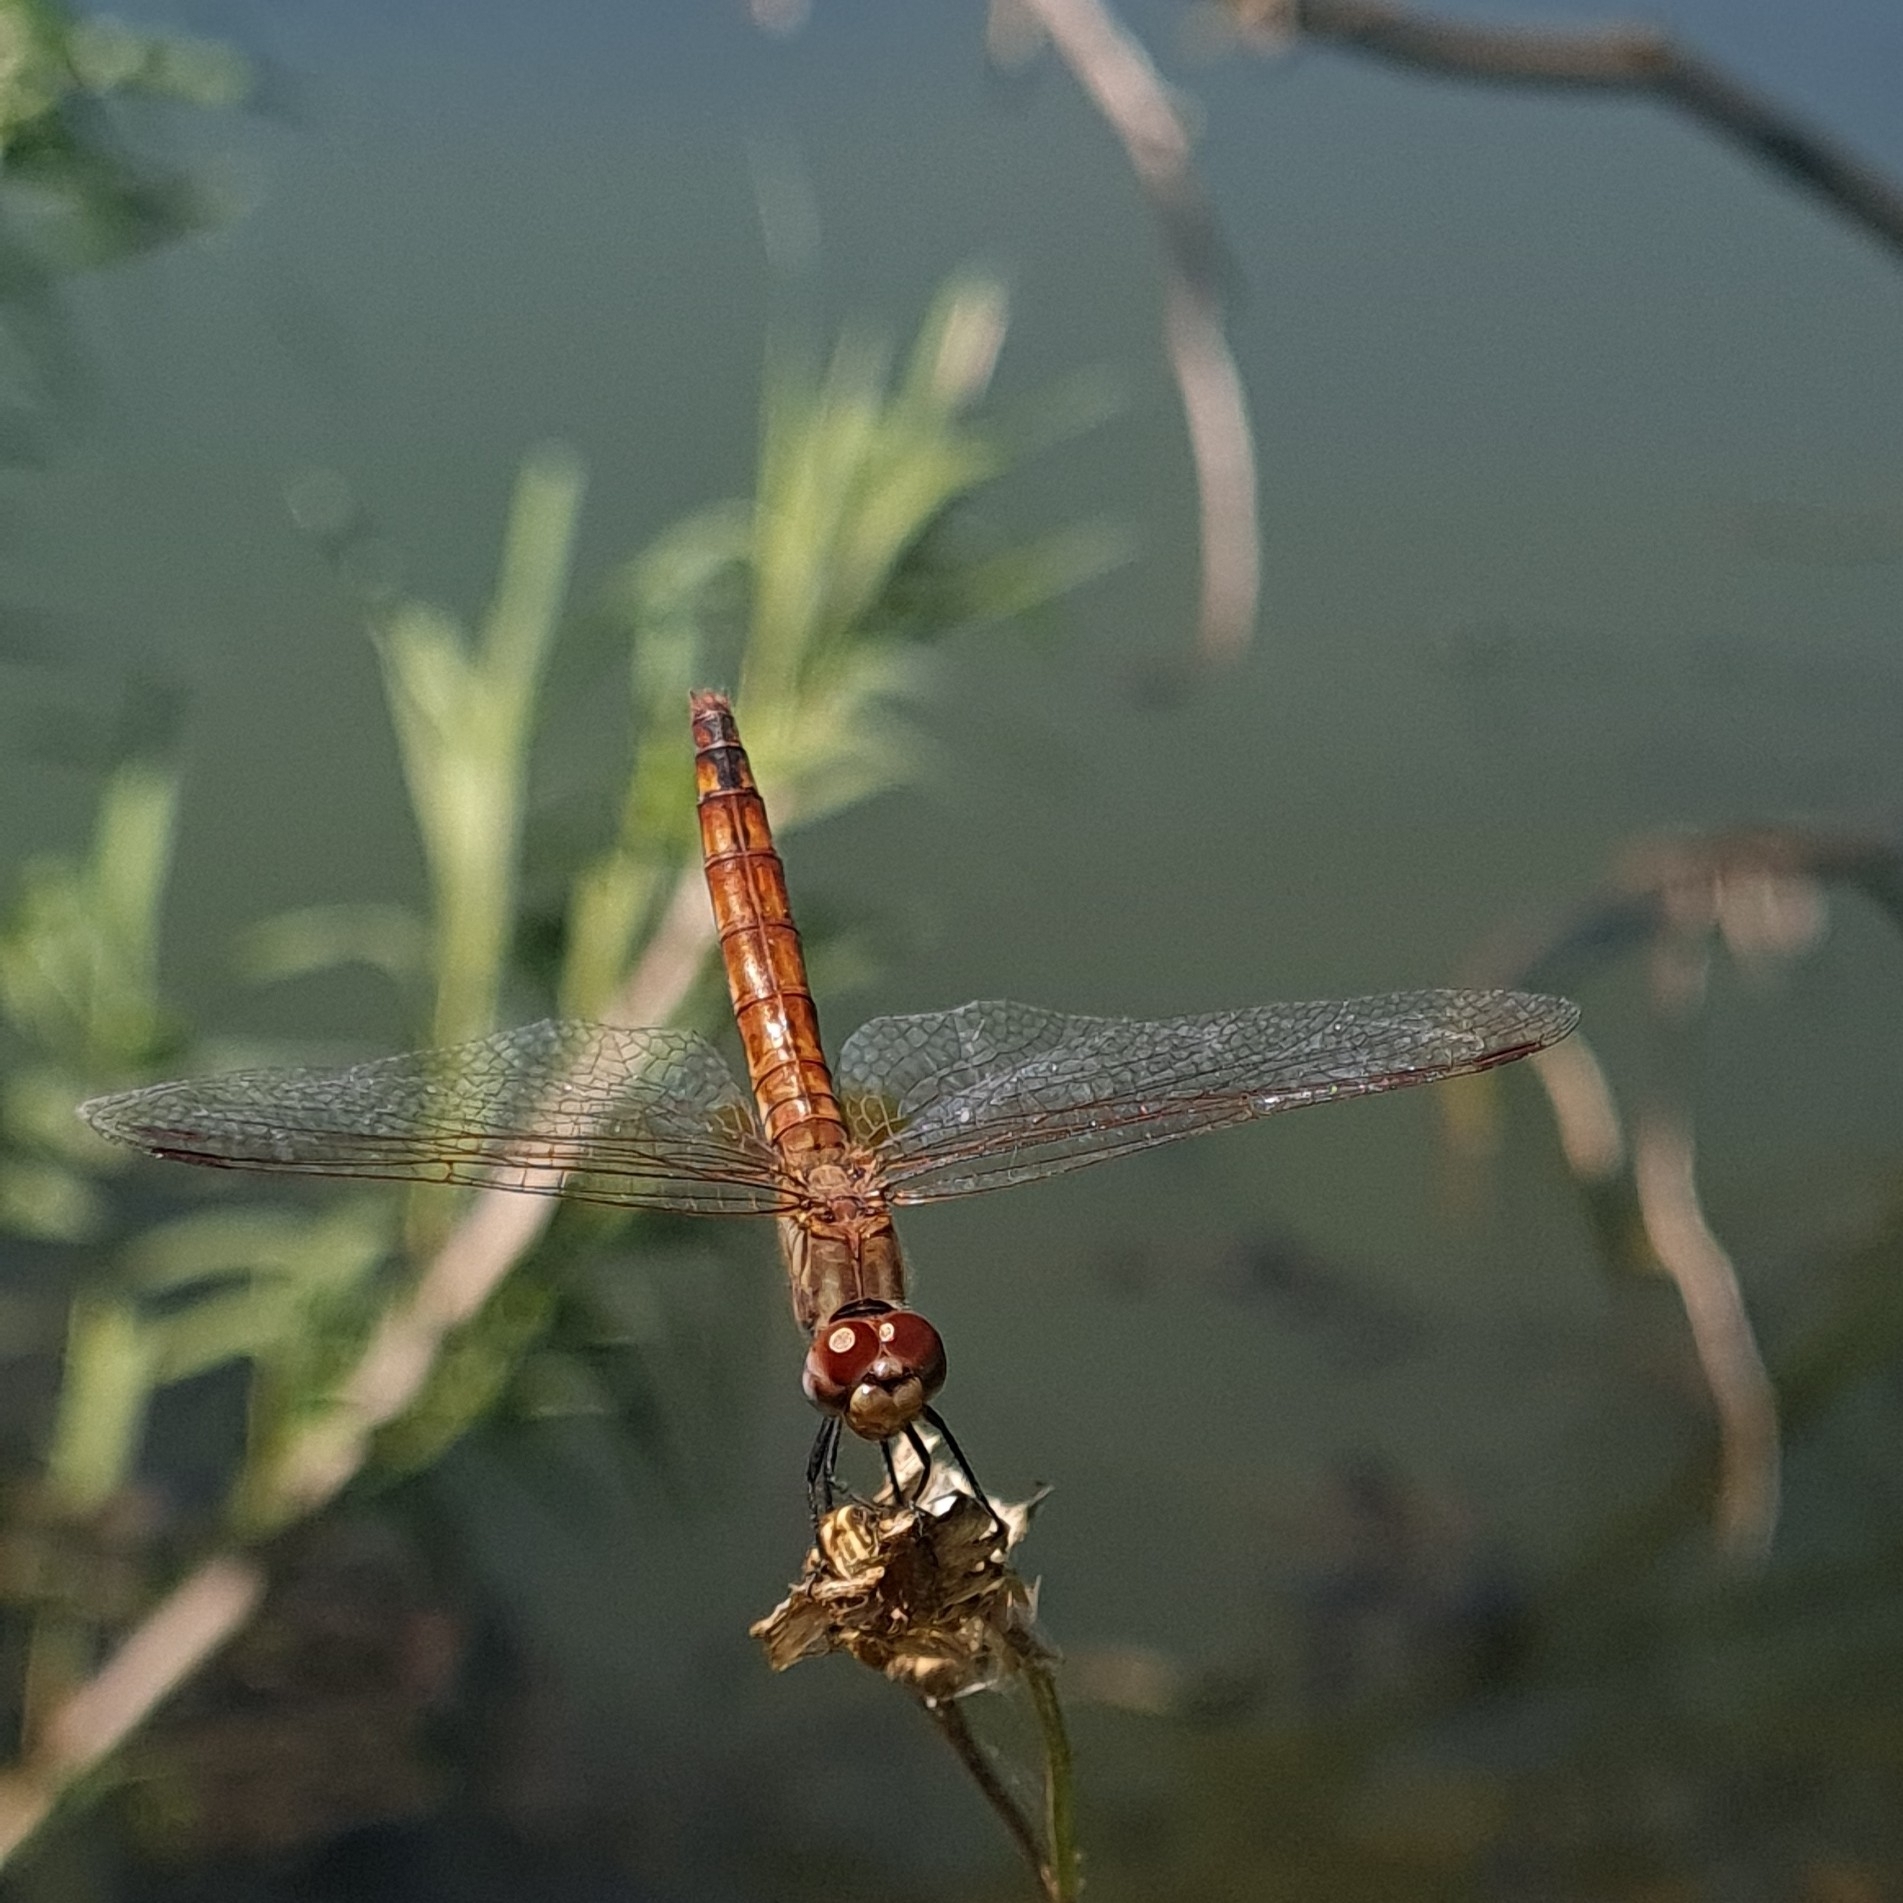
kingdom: Animalia
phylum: Arthropoda
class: Insecta
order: Odonata
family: Libellulidae
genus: Trithemis
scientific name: Trithemis annulata
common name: Violet dropwing
